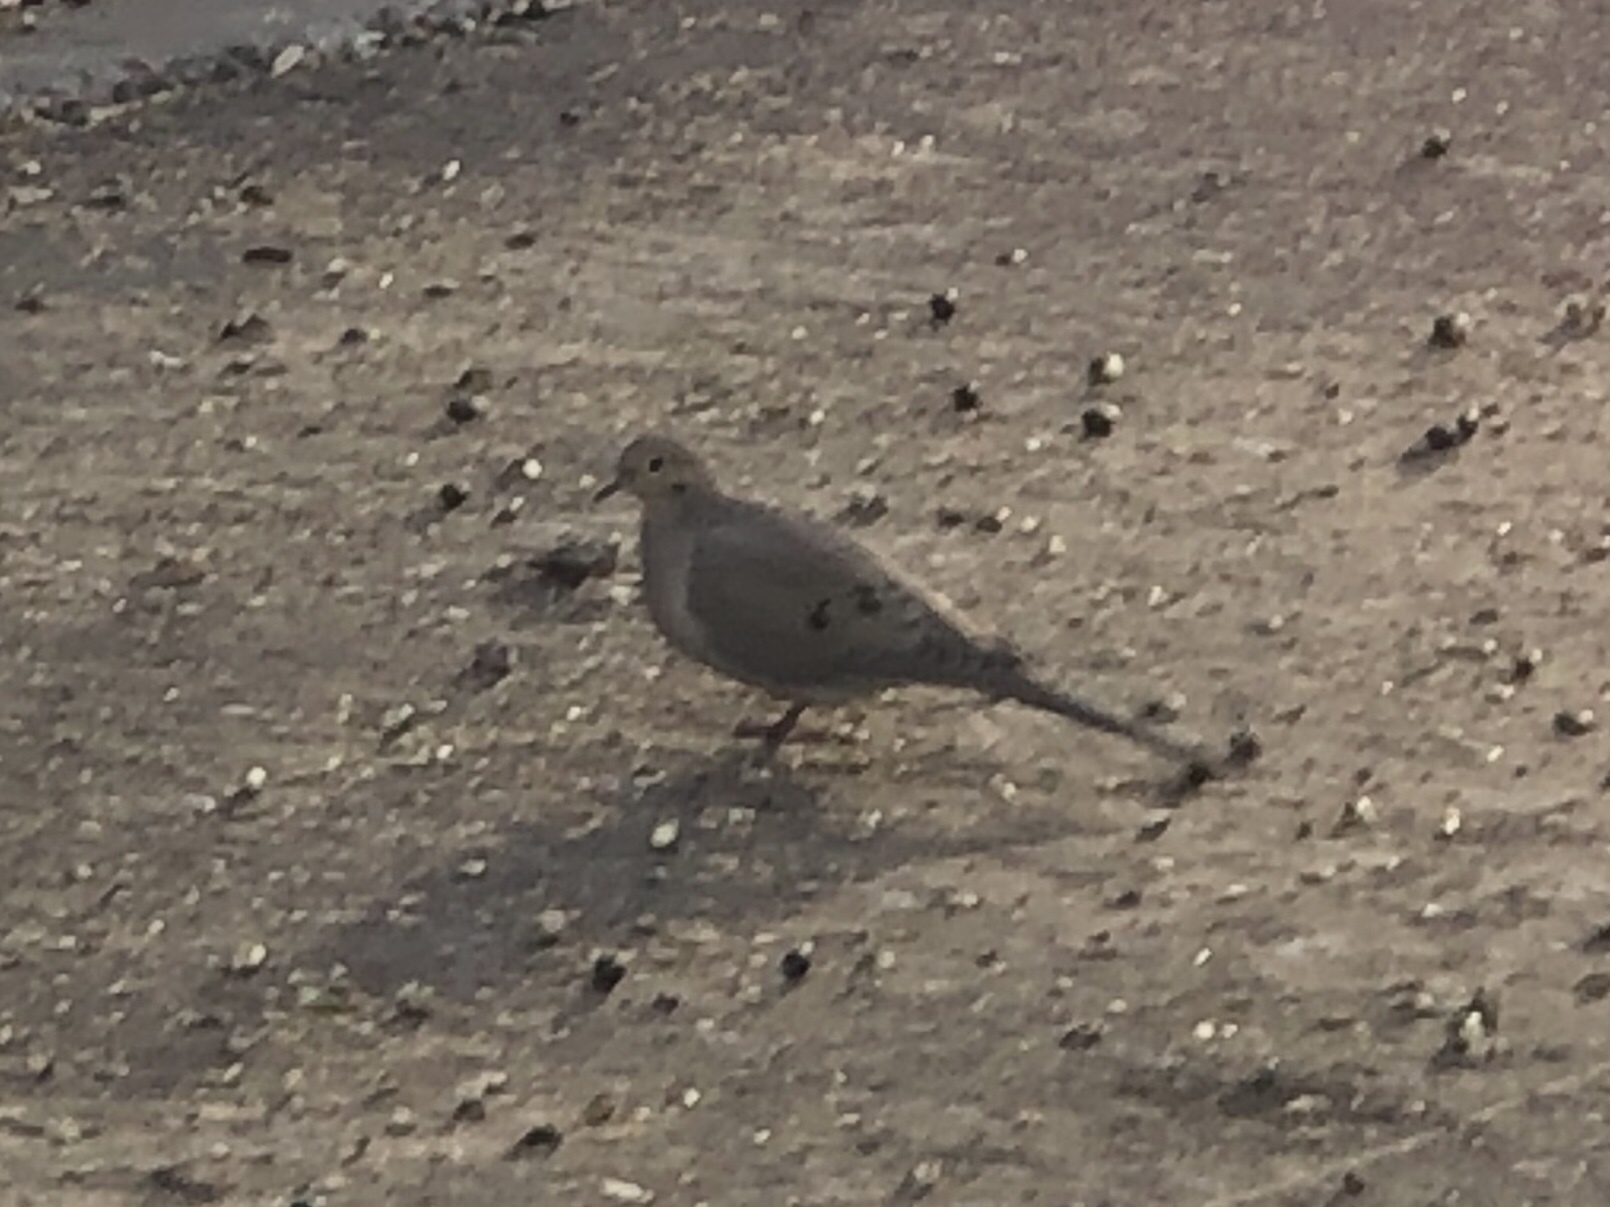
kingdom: Animalia
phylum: Chordata
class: Aves
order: Columbiformes
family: Columbidae
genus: Zenaida
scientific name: Zenaida macroura
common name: Mourning dove
